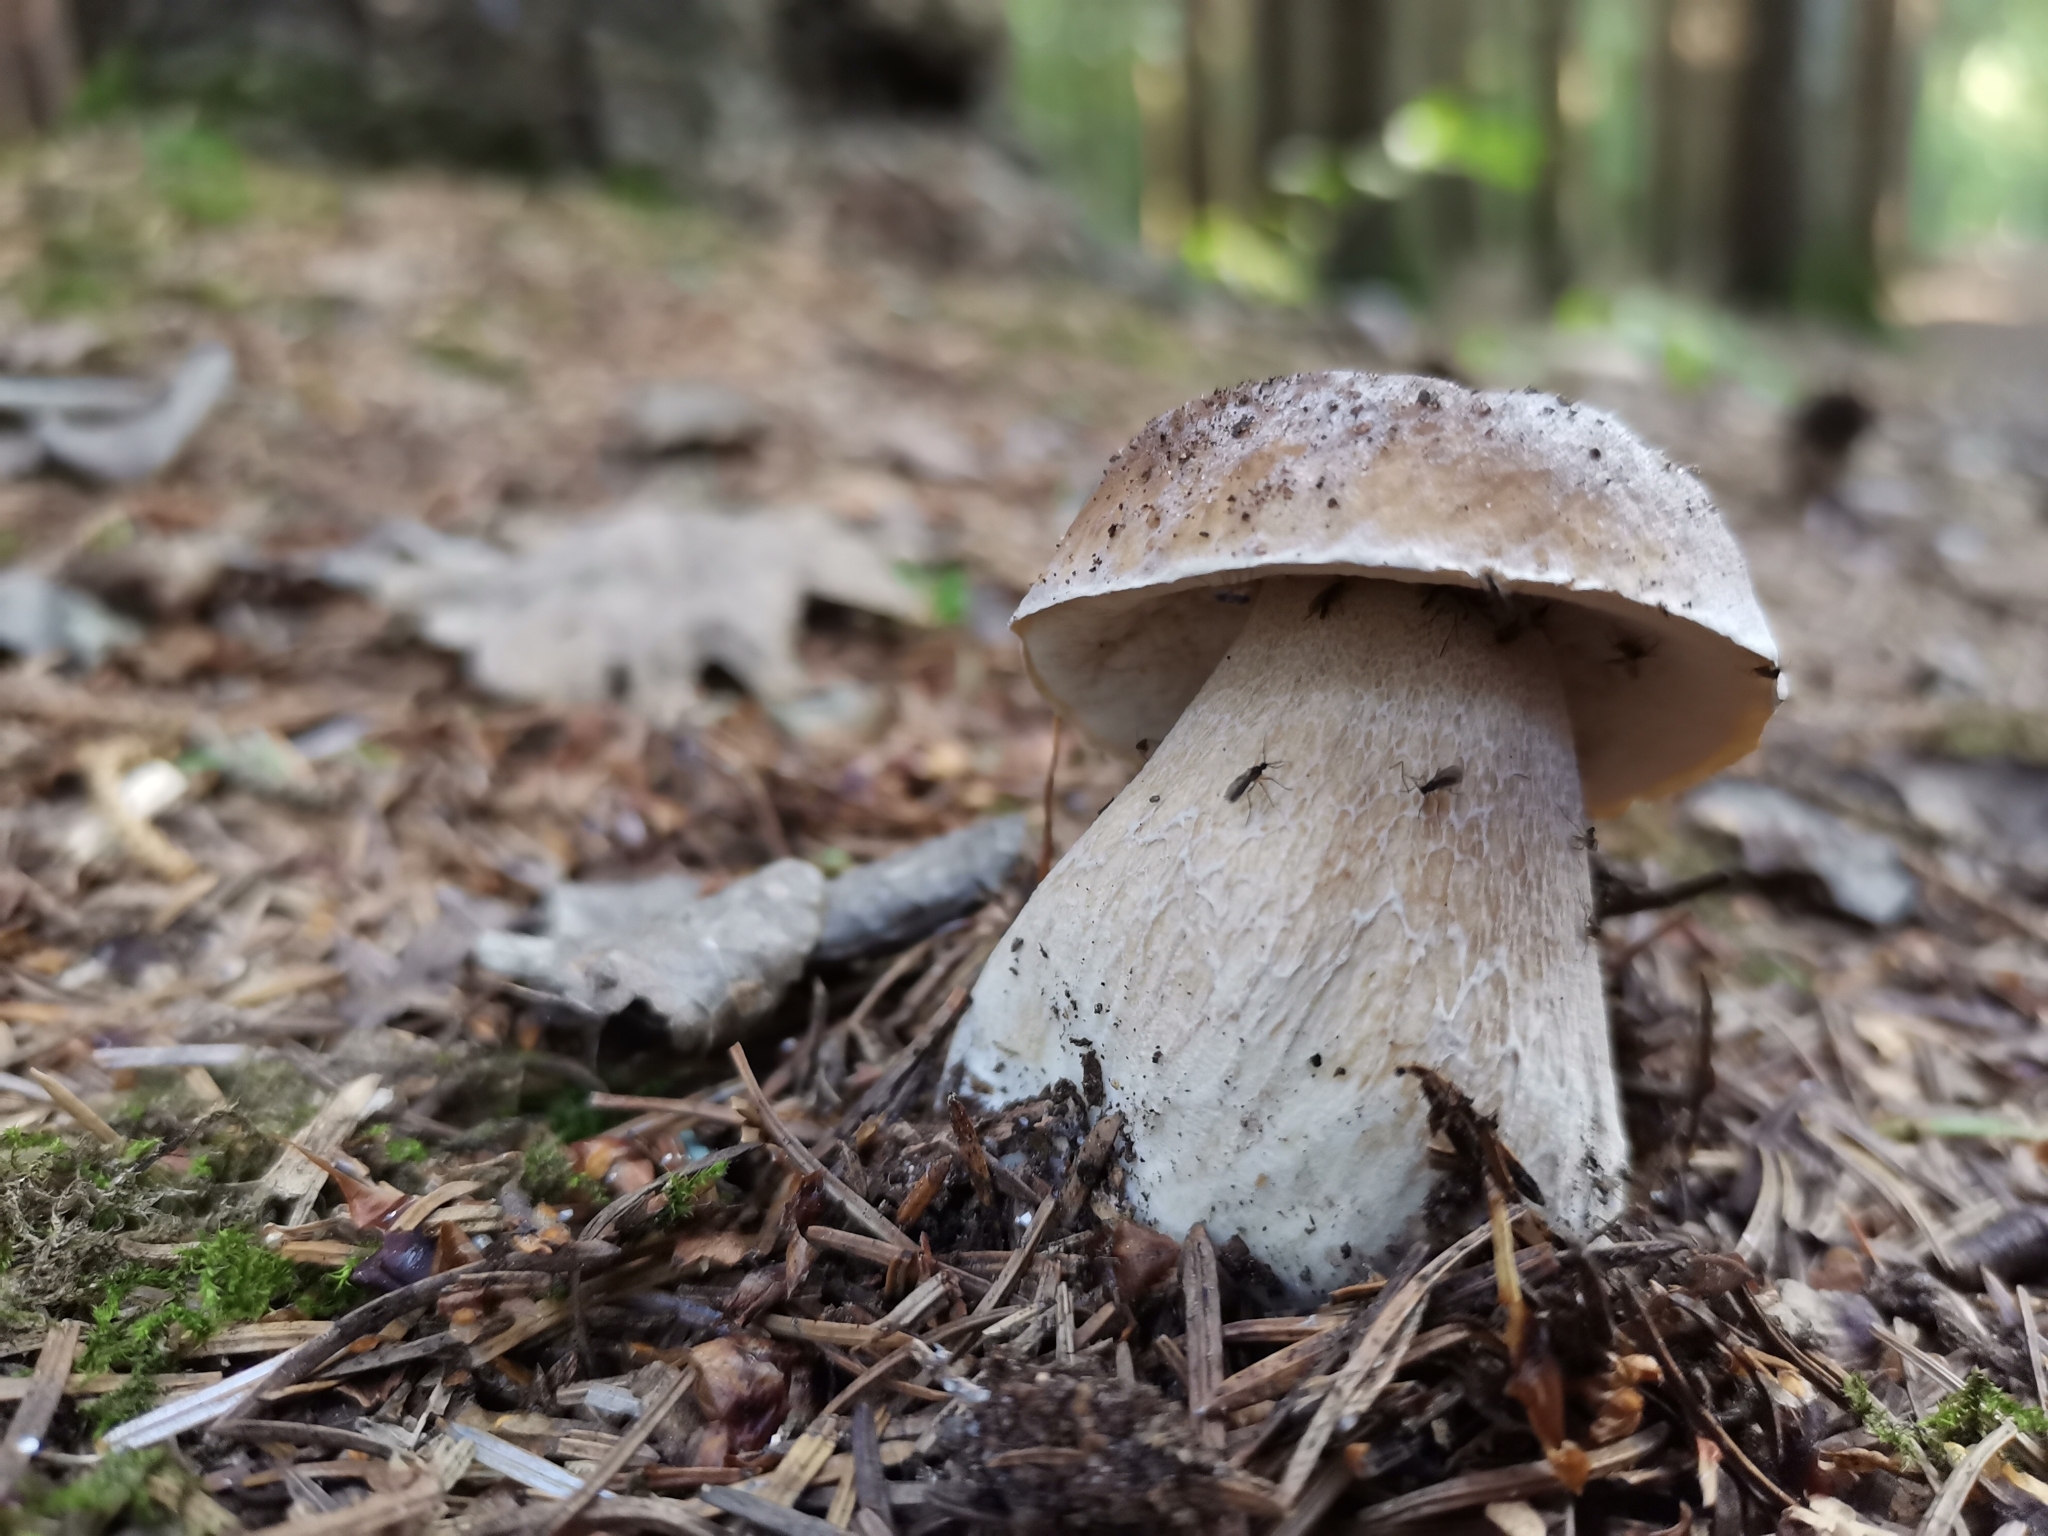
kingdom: Fungi
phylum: Basidiomycota
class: Agaricomycetes
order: Boletales
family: Boletaceae
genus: Boletus
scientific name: Boletus edulis
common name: Cep
